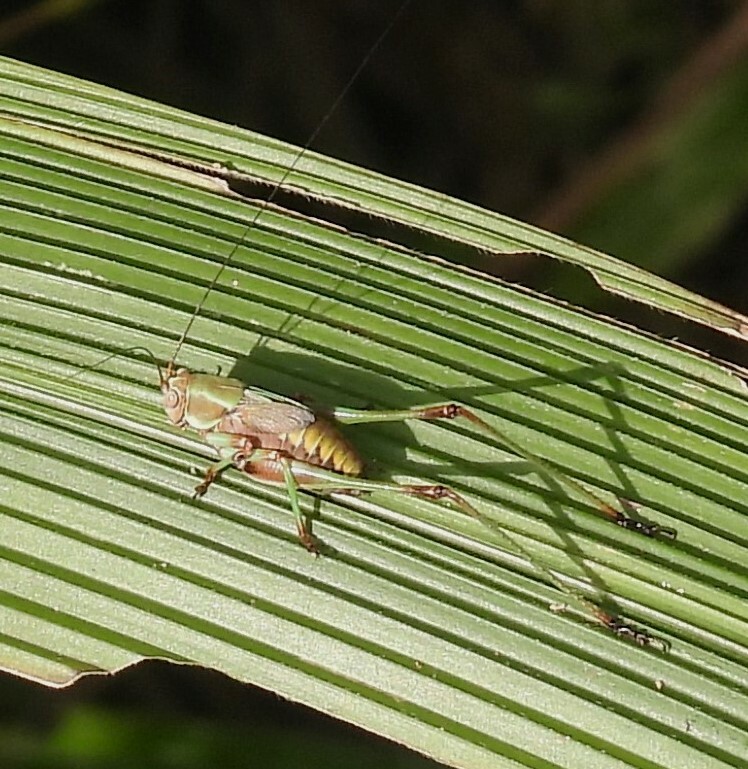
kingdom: Animalia
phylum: Arthropoda
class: Insecta
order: Orthoptera
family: Tettigoniidae
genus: Enthephippion
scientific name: Enthephippion olivaceum
